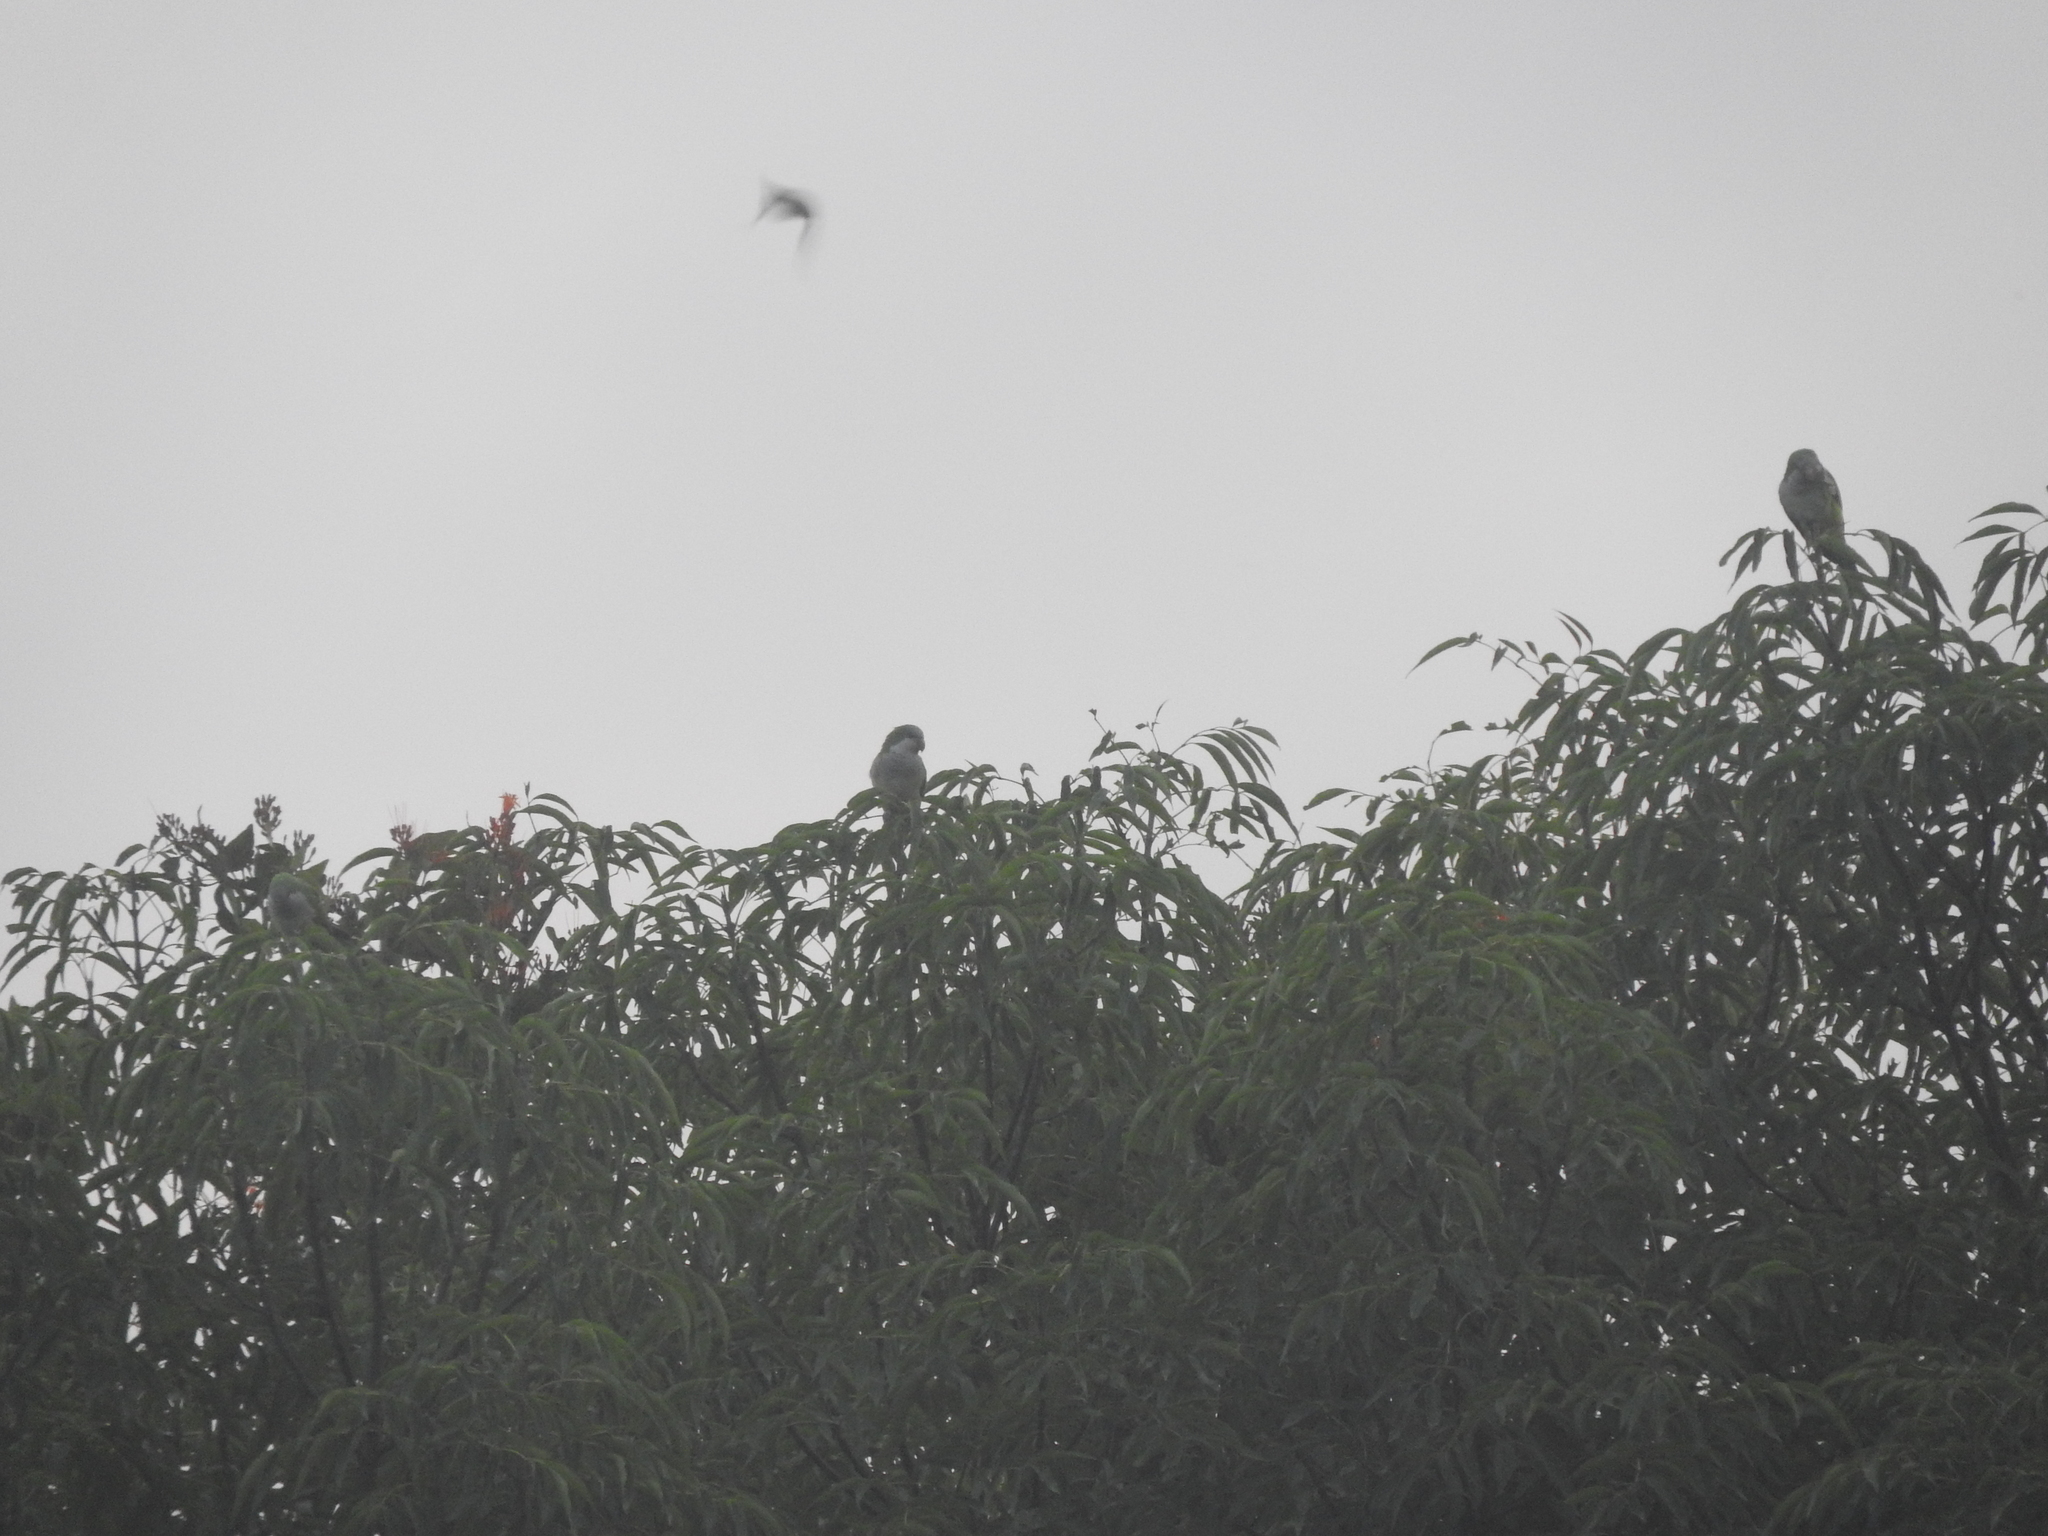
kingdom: Animalia
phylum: Chordata
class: Aves
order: Psittaciformes
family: Psittacidae
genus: Myiopsitta
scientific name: Myiopsitta monachus
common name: Monk parakeet
